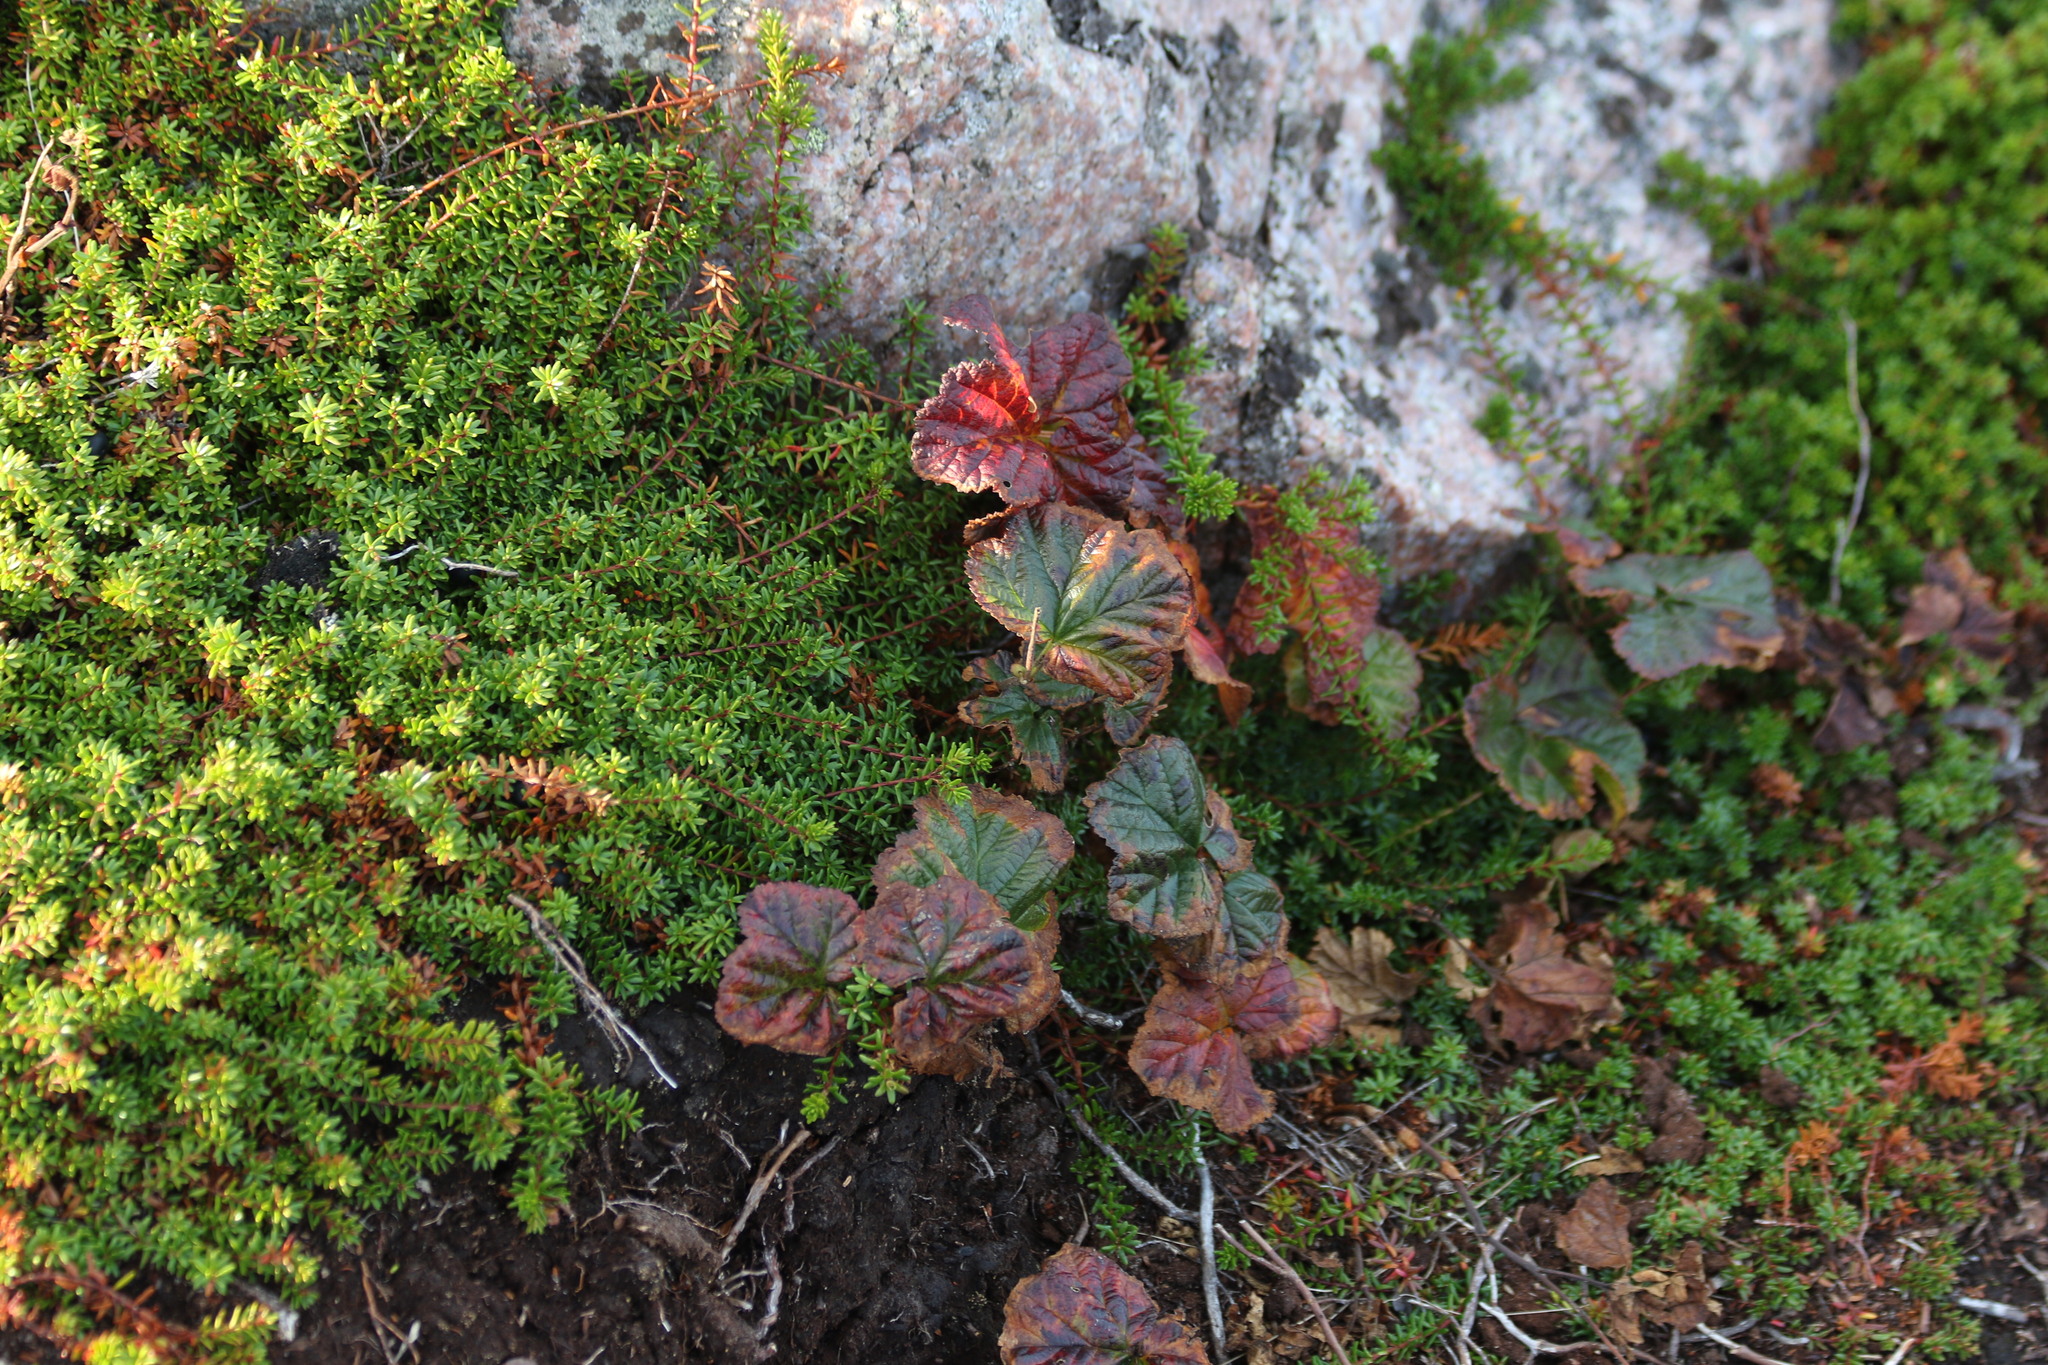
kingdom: Plantae
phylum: Tracheophyta
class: Magnoliopsida
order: Rosales
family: Rosaceae
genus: Rubus
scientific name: Rubus chamaemorus
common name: Cloudberry
